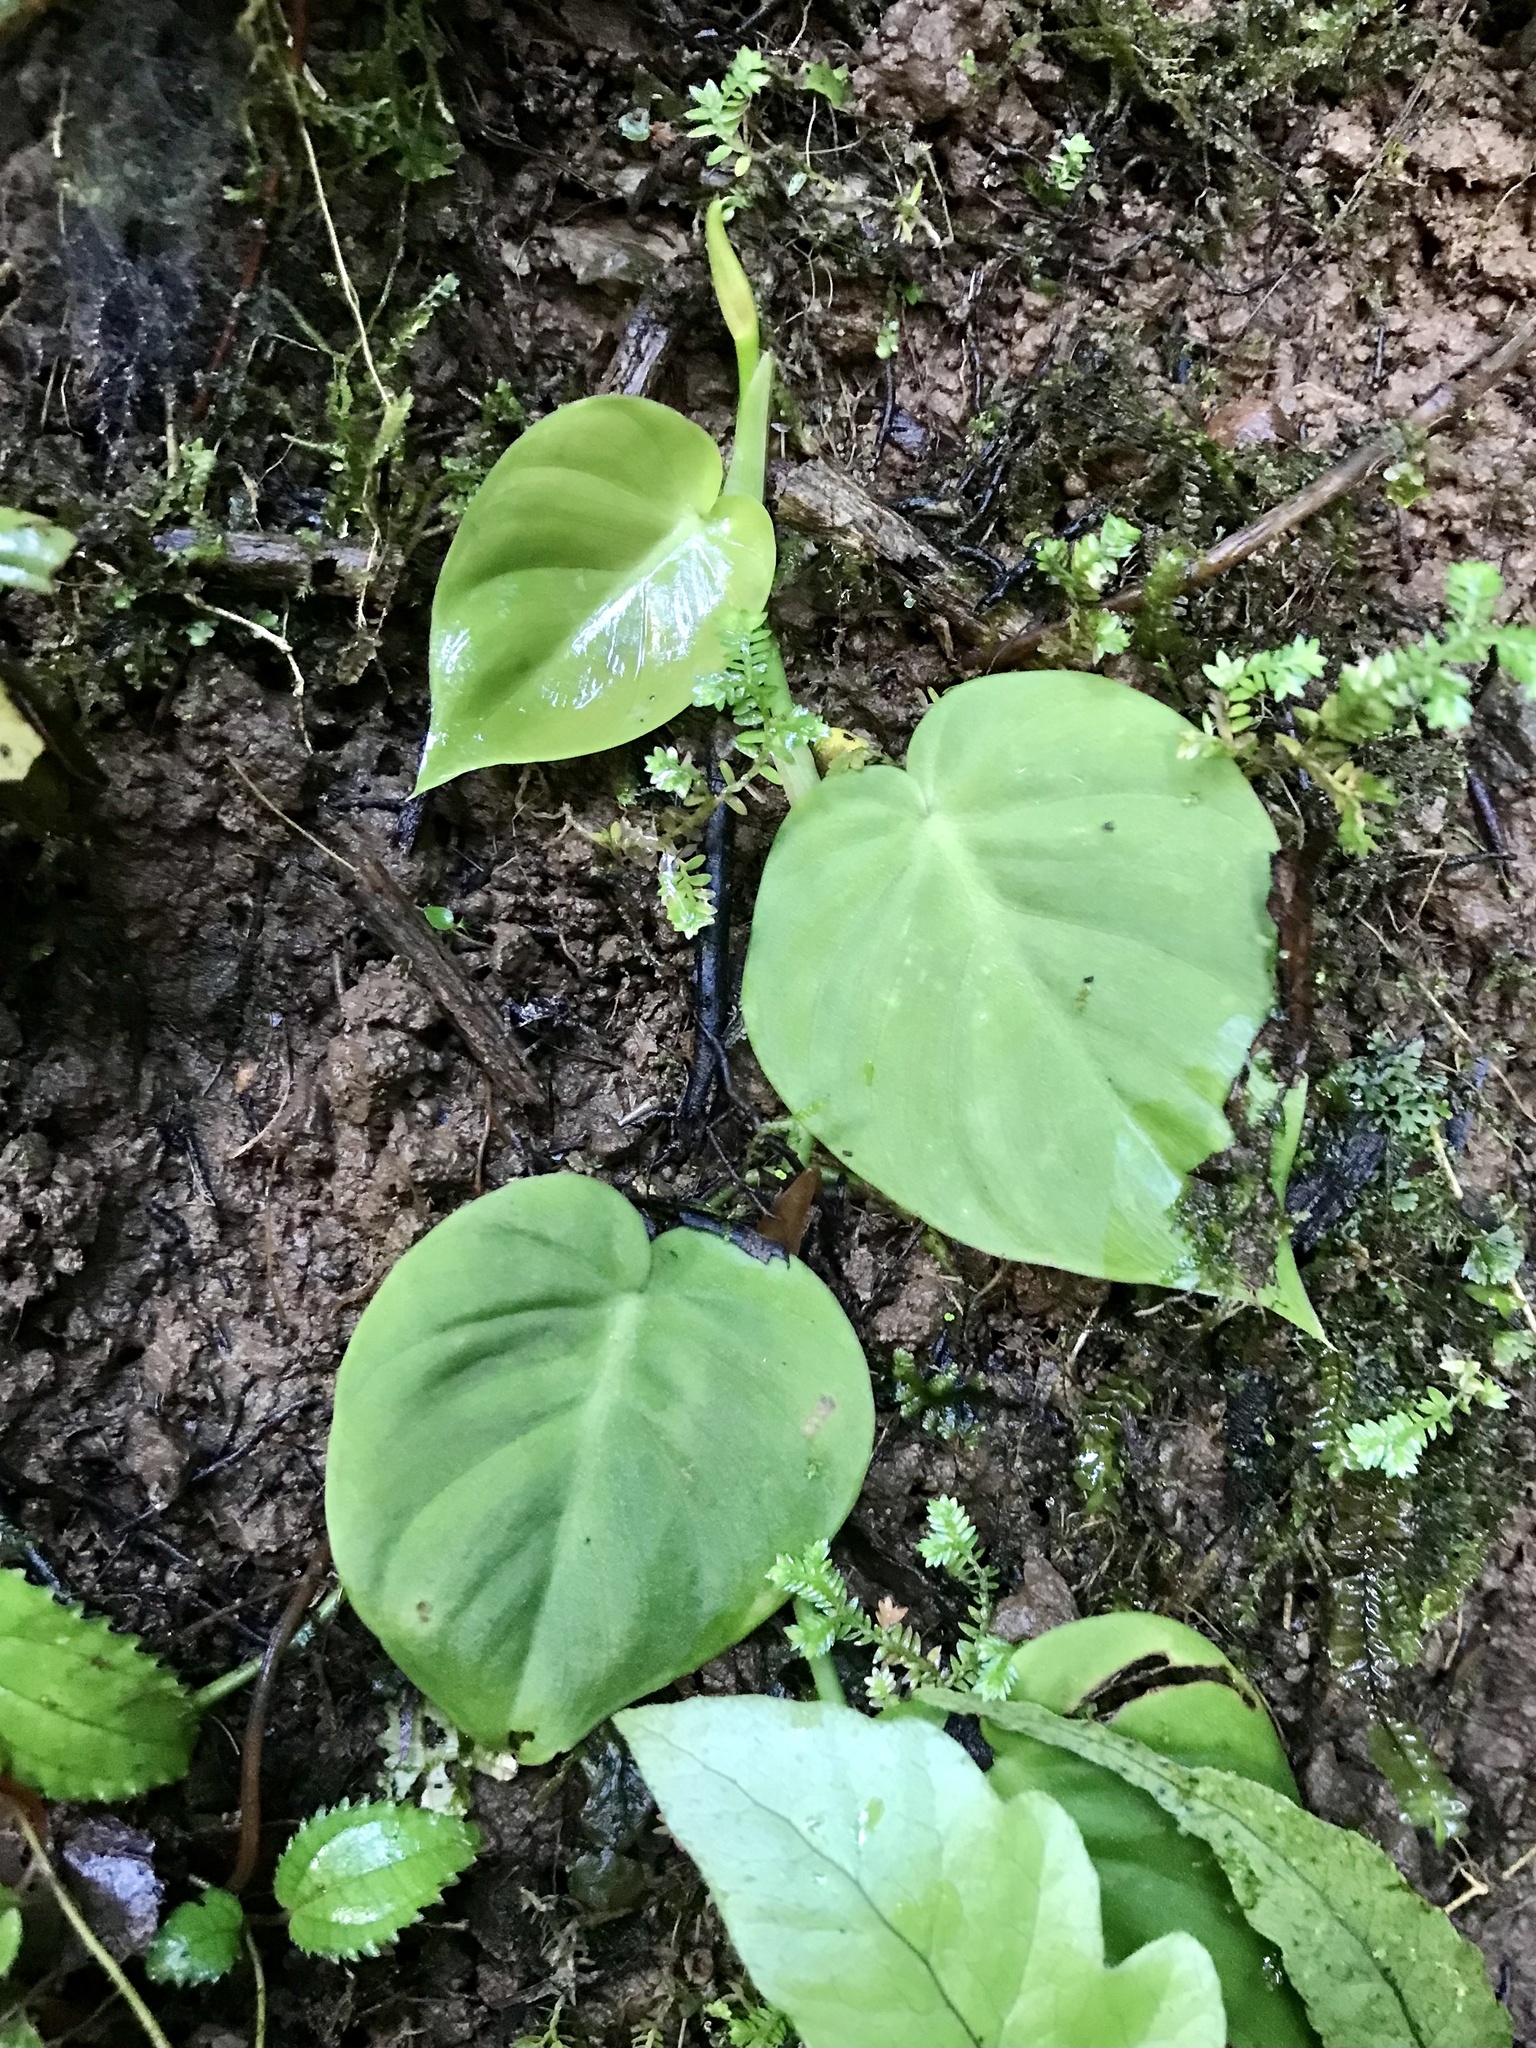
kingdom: Plantae
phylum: Tracheophyta
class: Liliopsida
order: Alismatales
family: Araceae
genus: Philodendron
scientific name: Philodendron hederaceum
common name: Vilevine
